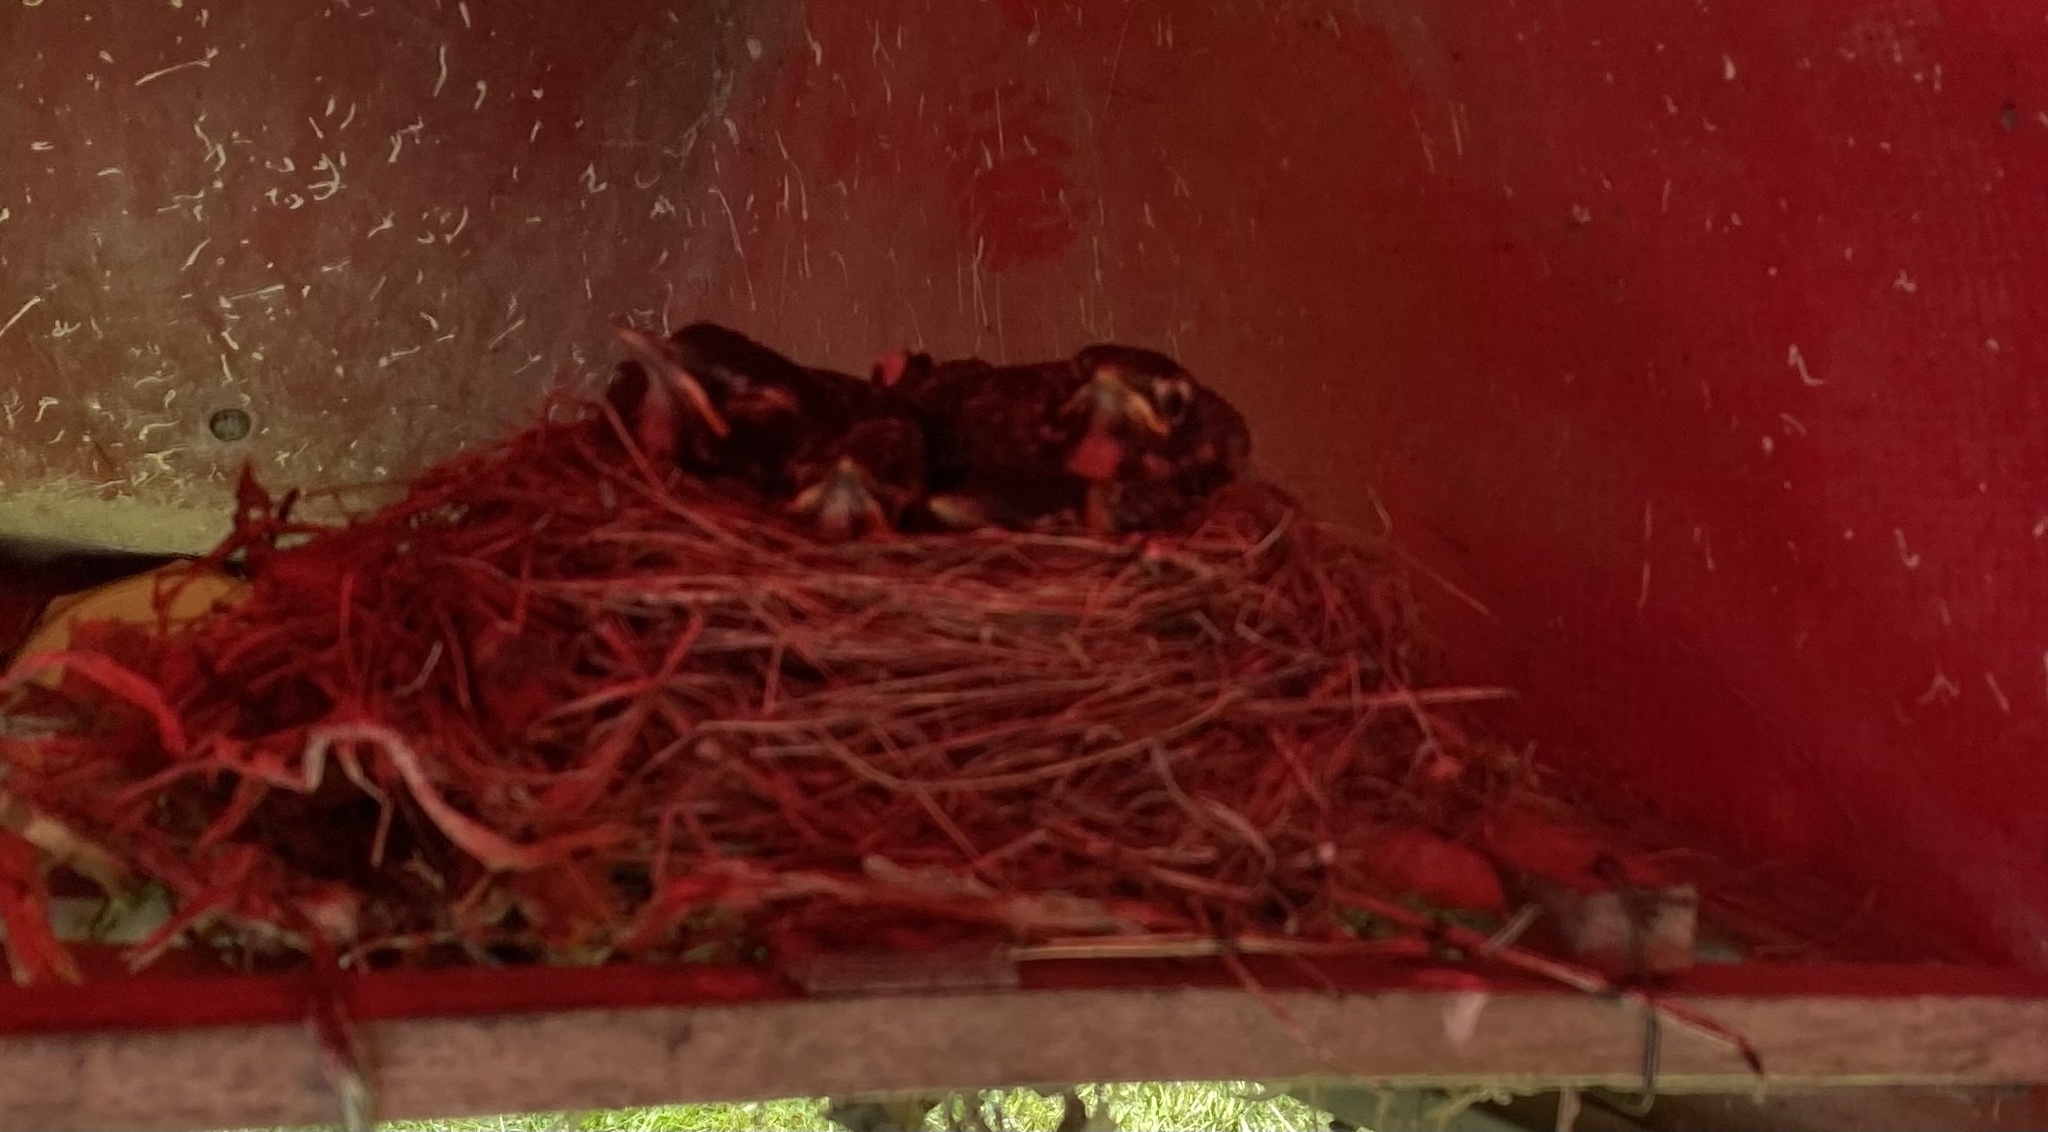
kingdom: Animalia
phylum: Chordata
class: Aves
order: Passeriformes
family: Turdidae
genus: Turdus
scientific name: Turdus migratorius
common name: American robin
